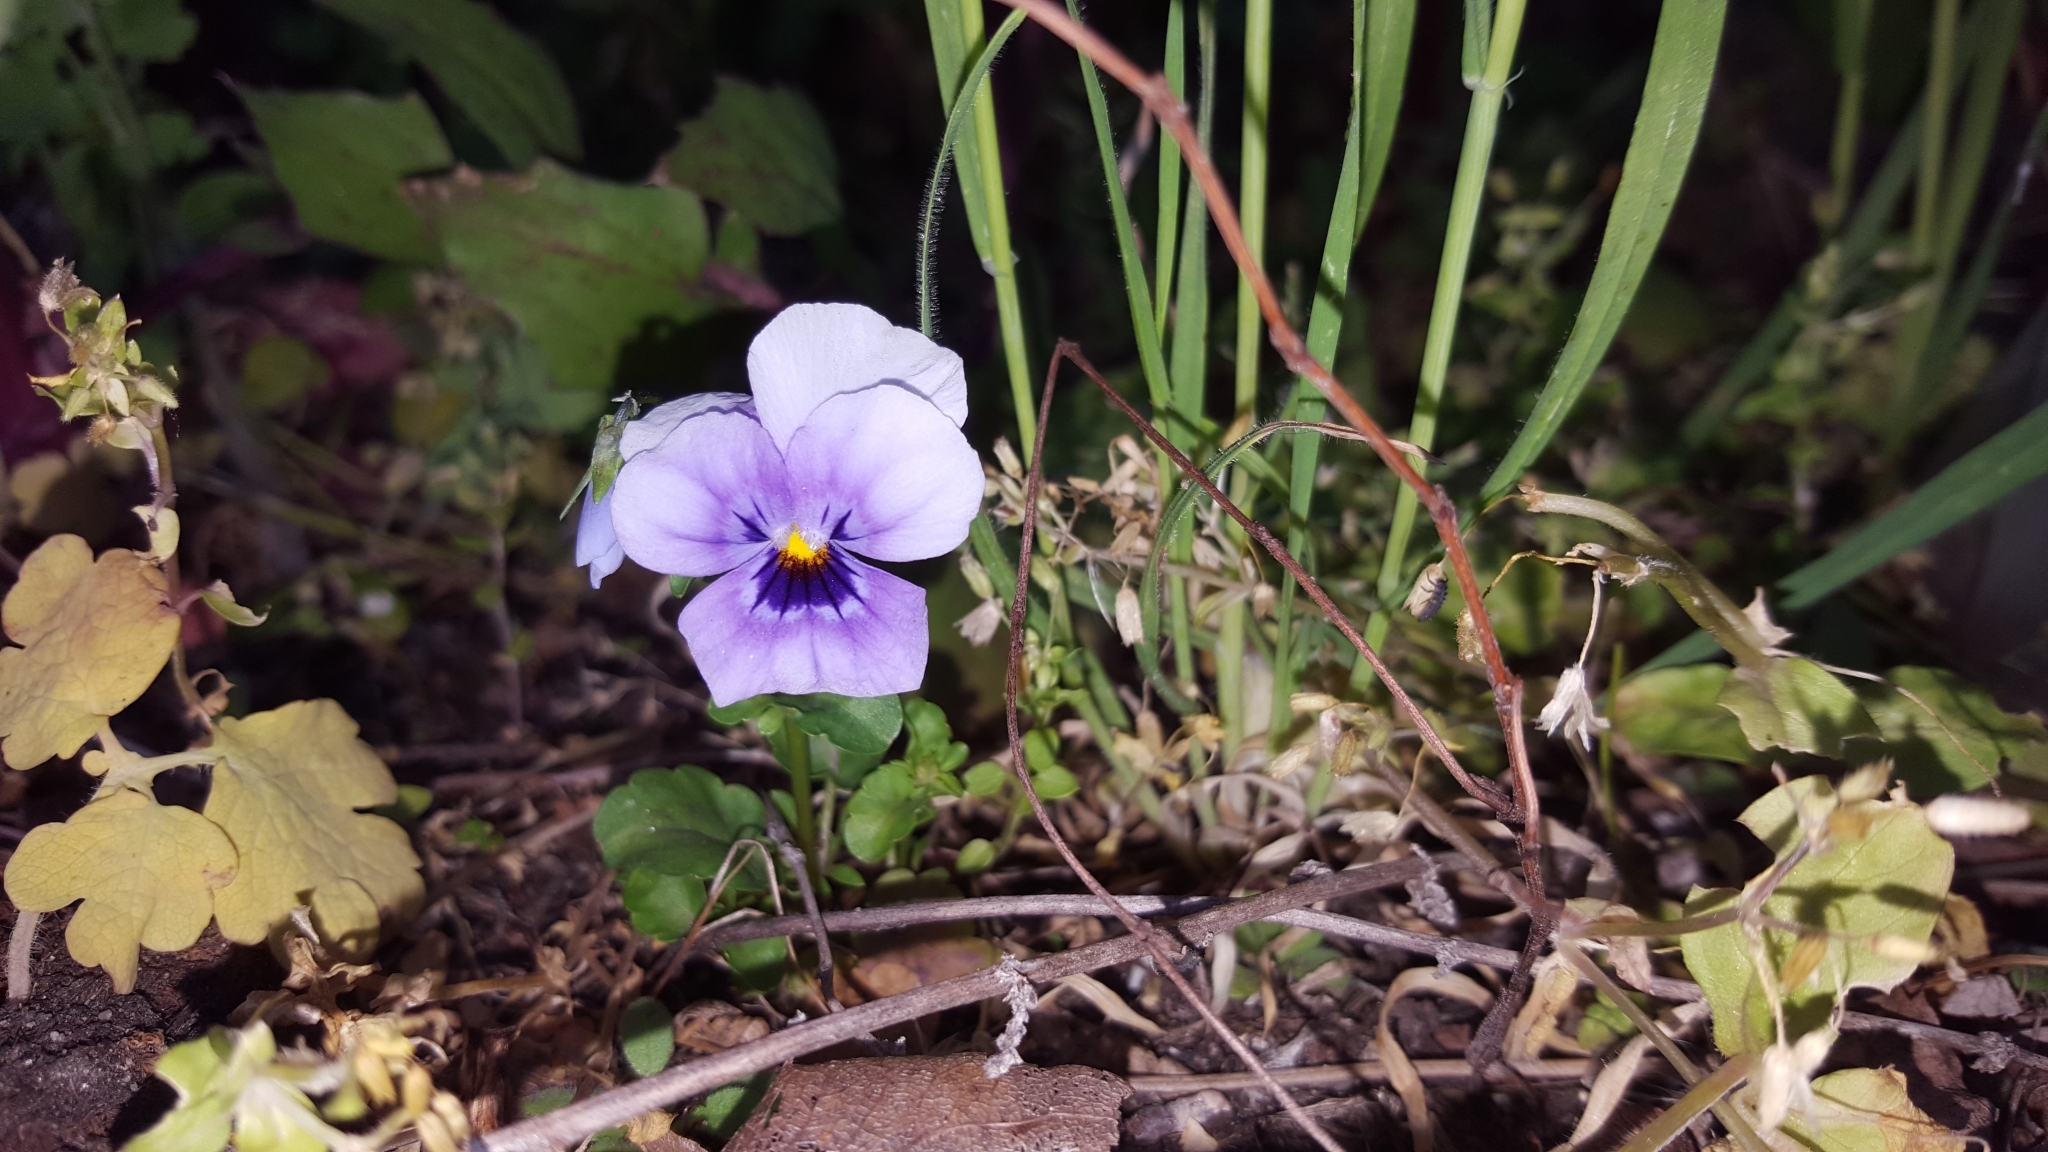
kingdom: Plantae
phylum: Tracheophyta
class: Magnoliopsida
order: Malpighiales
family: Violaceae
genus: Viola
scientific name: Viola wittrockiana
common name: Garden pansy
